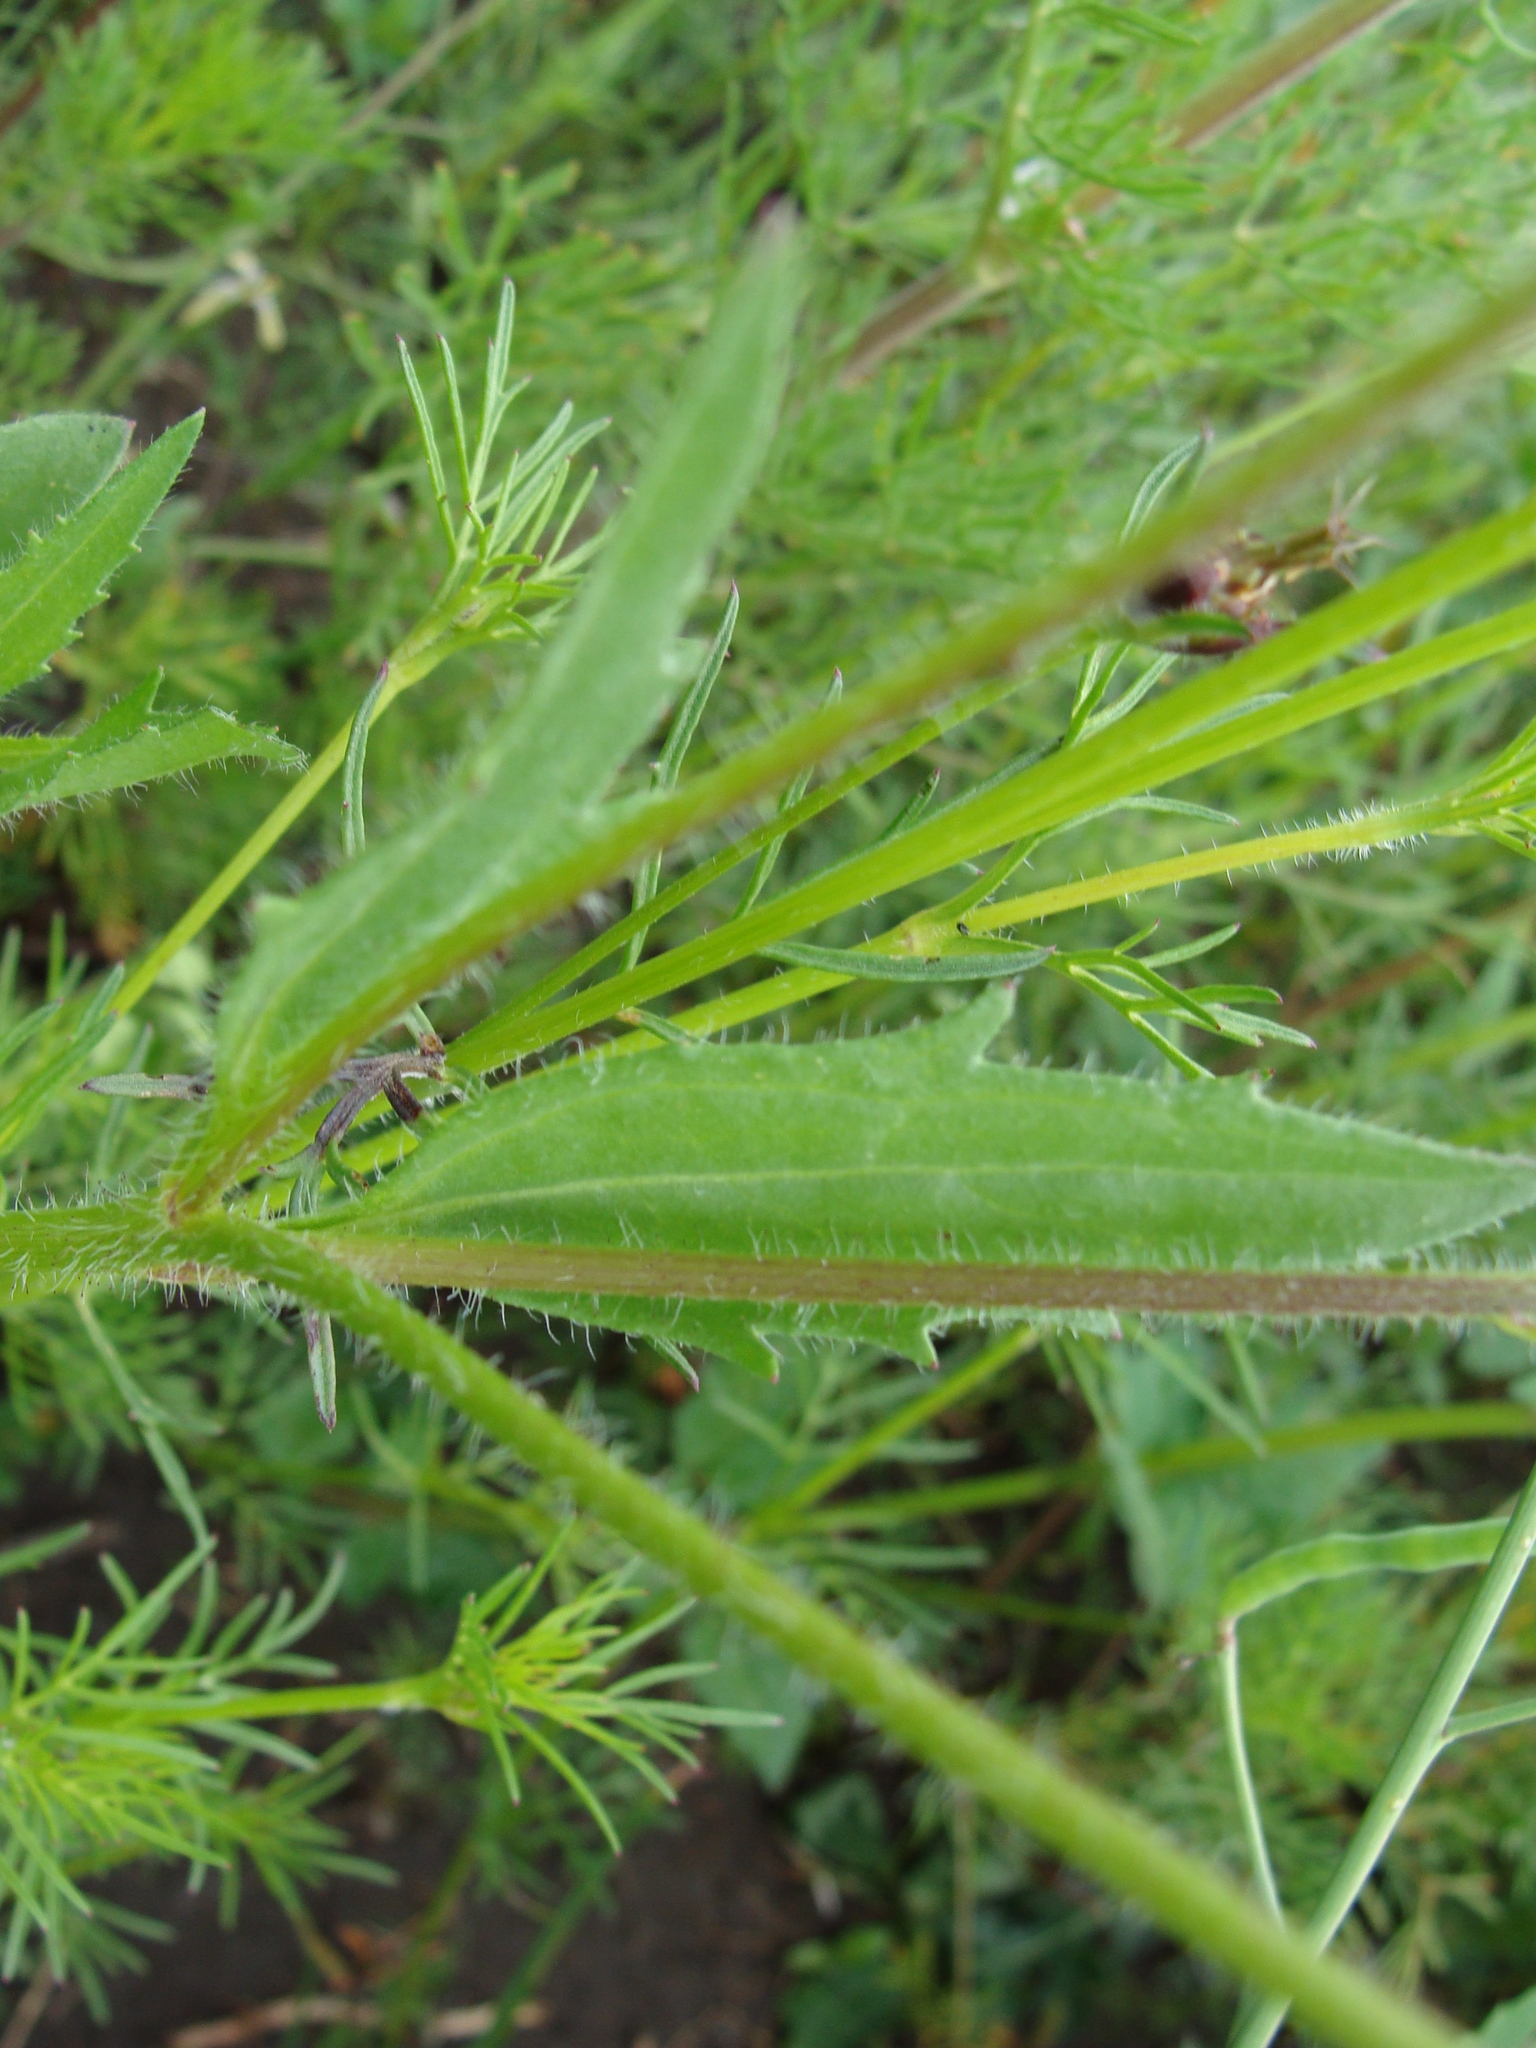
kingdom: Plantae
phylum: Tracheophyta
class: Magnoliopsida
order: Asterales
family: Asteraceae
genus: Tridax
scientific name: Tridax trilobata
